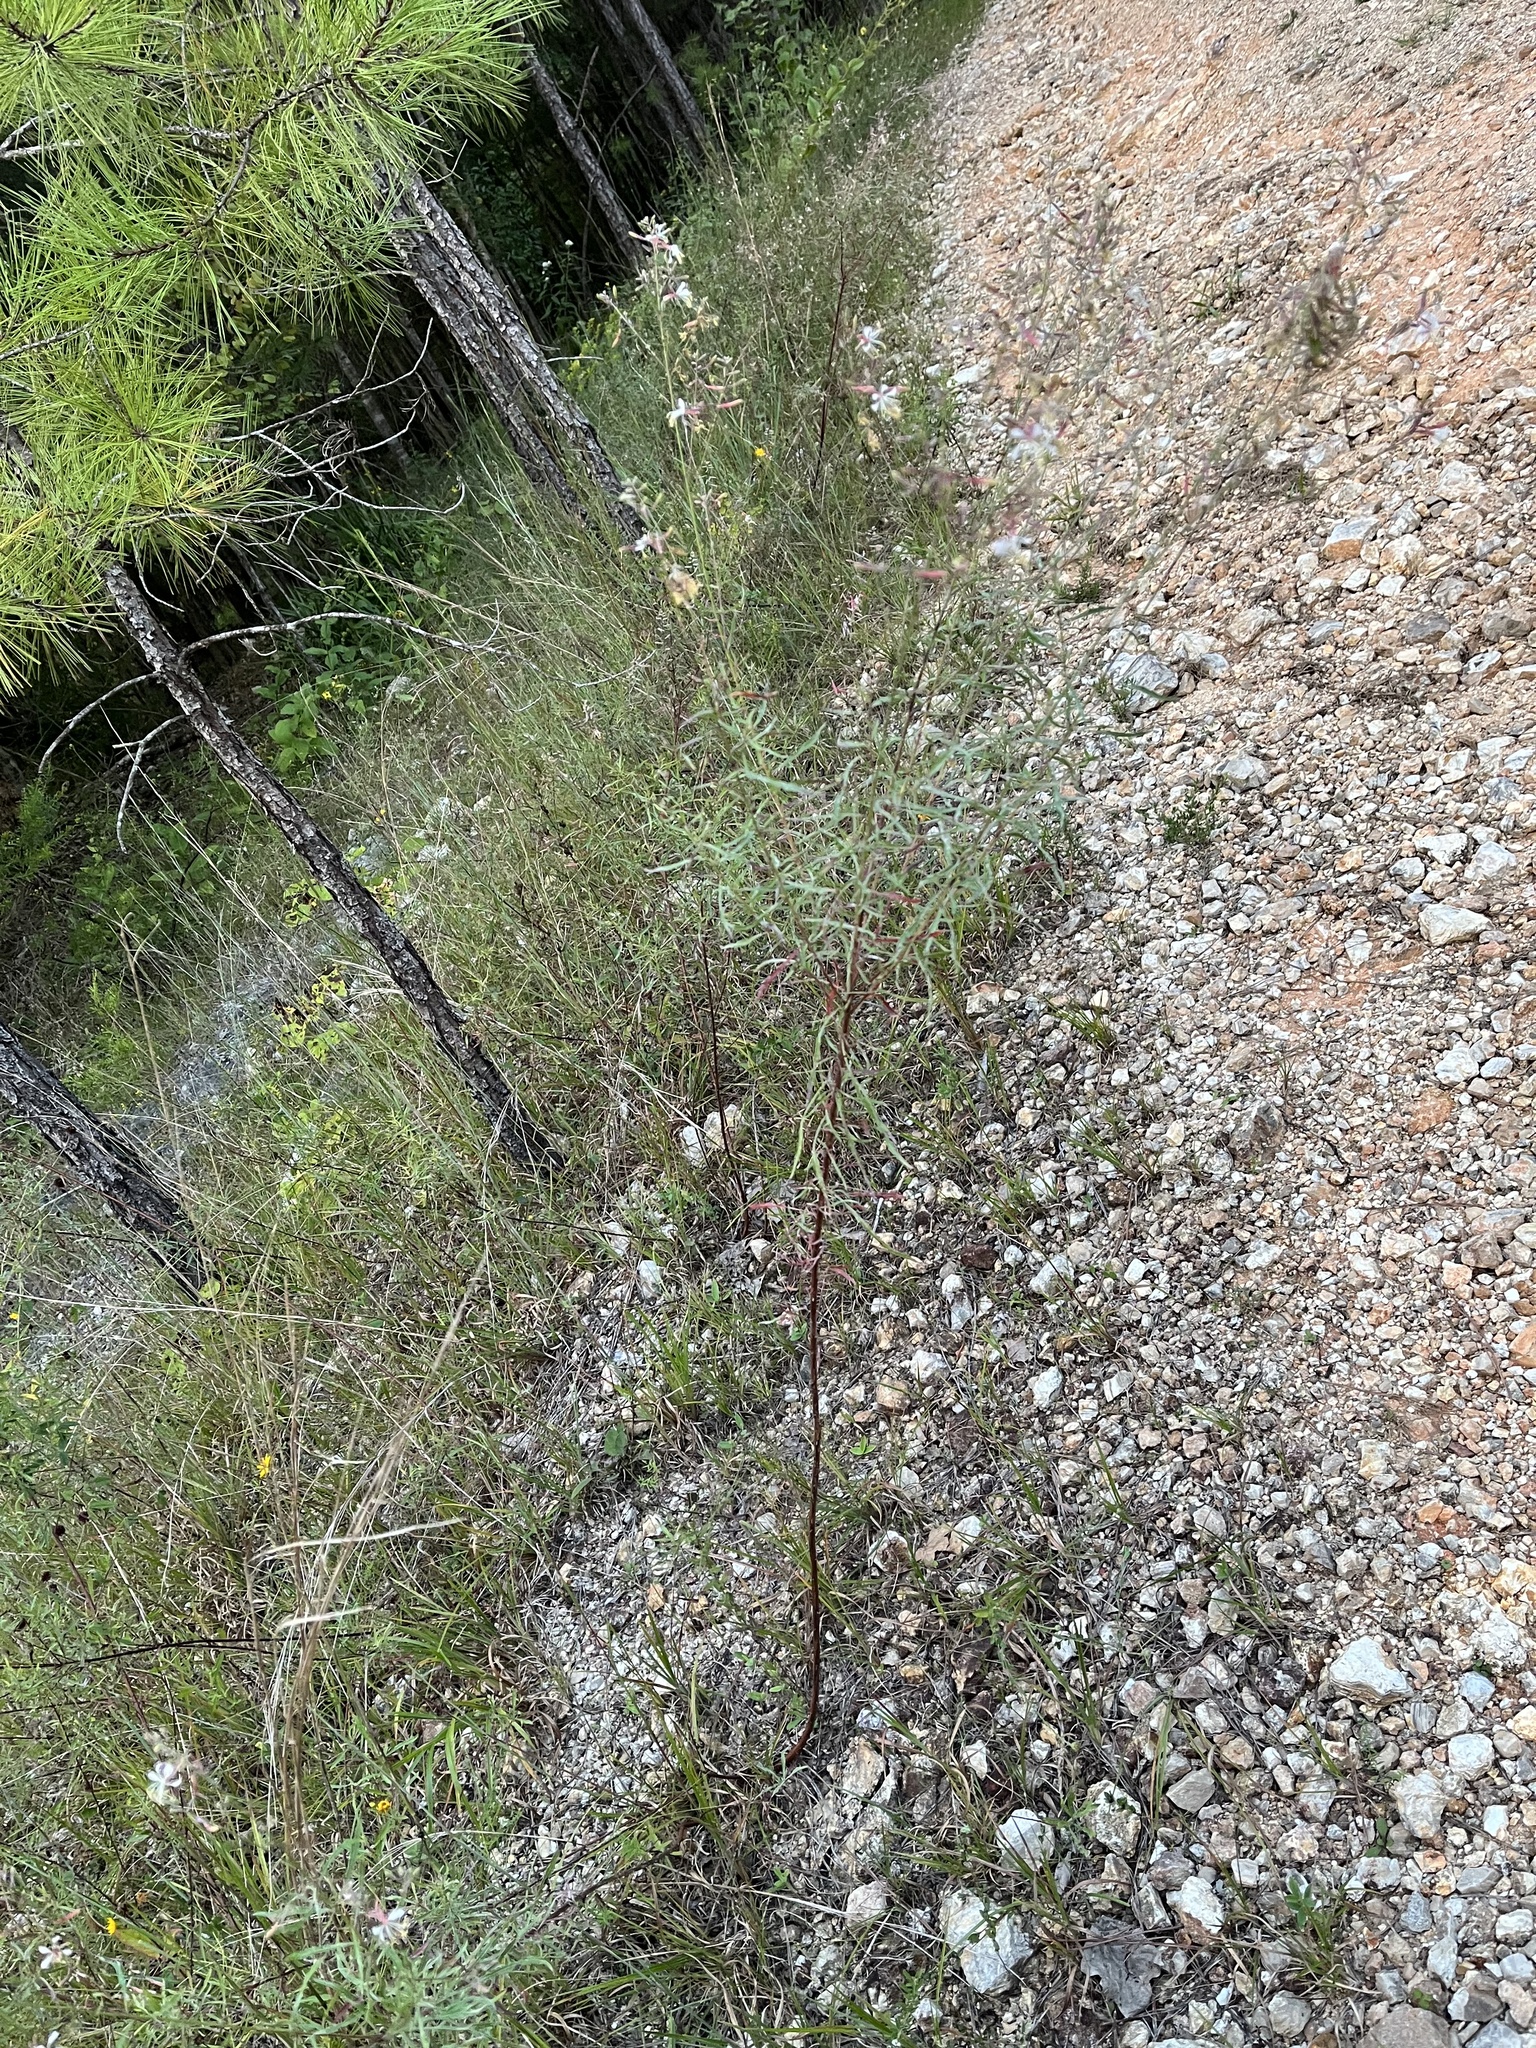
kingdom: Plantae
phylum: Tracheophyta
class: Magnoliopsida
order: Myrtales
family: Onagraceae
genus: Oenothera
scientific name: Oenothera filipes
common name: Slenderstalk beeblossom
